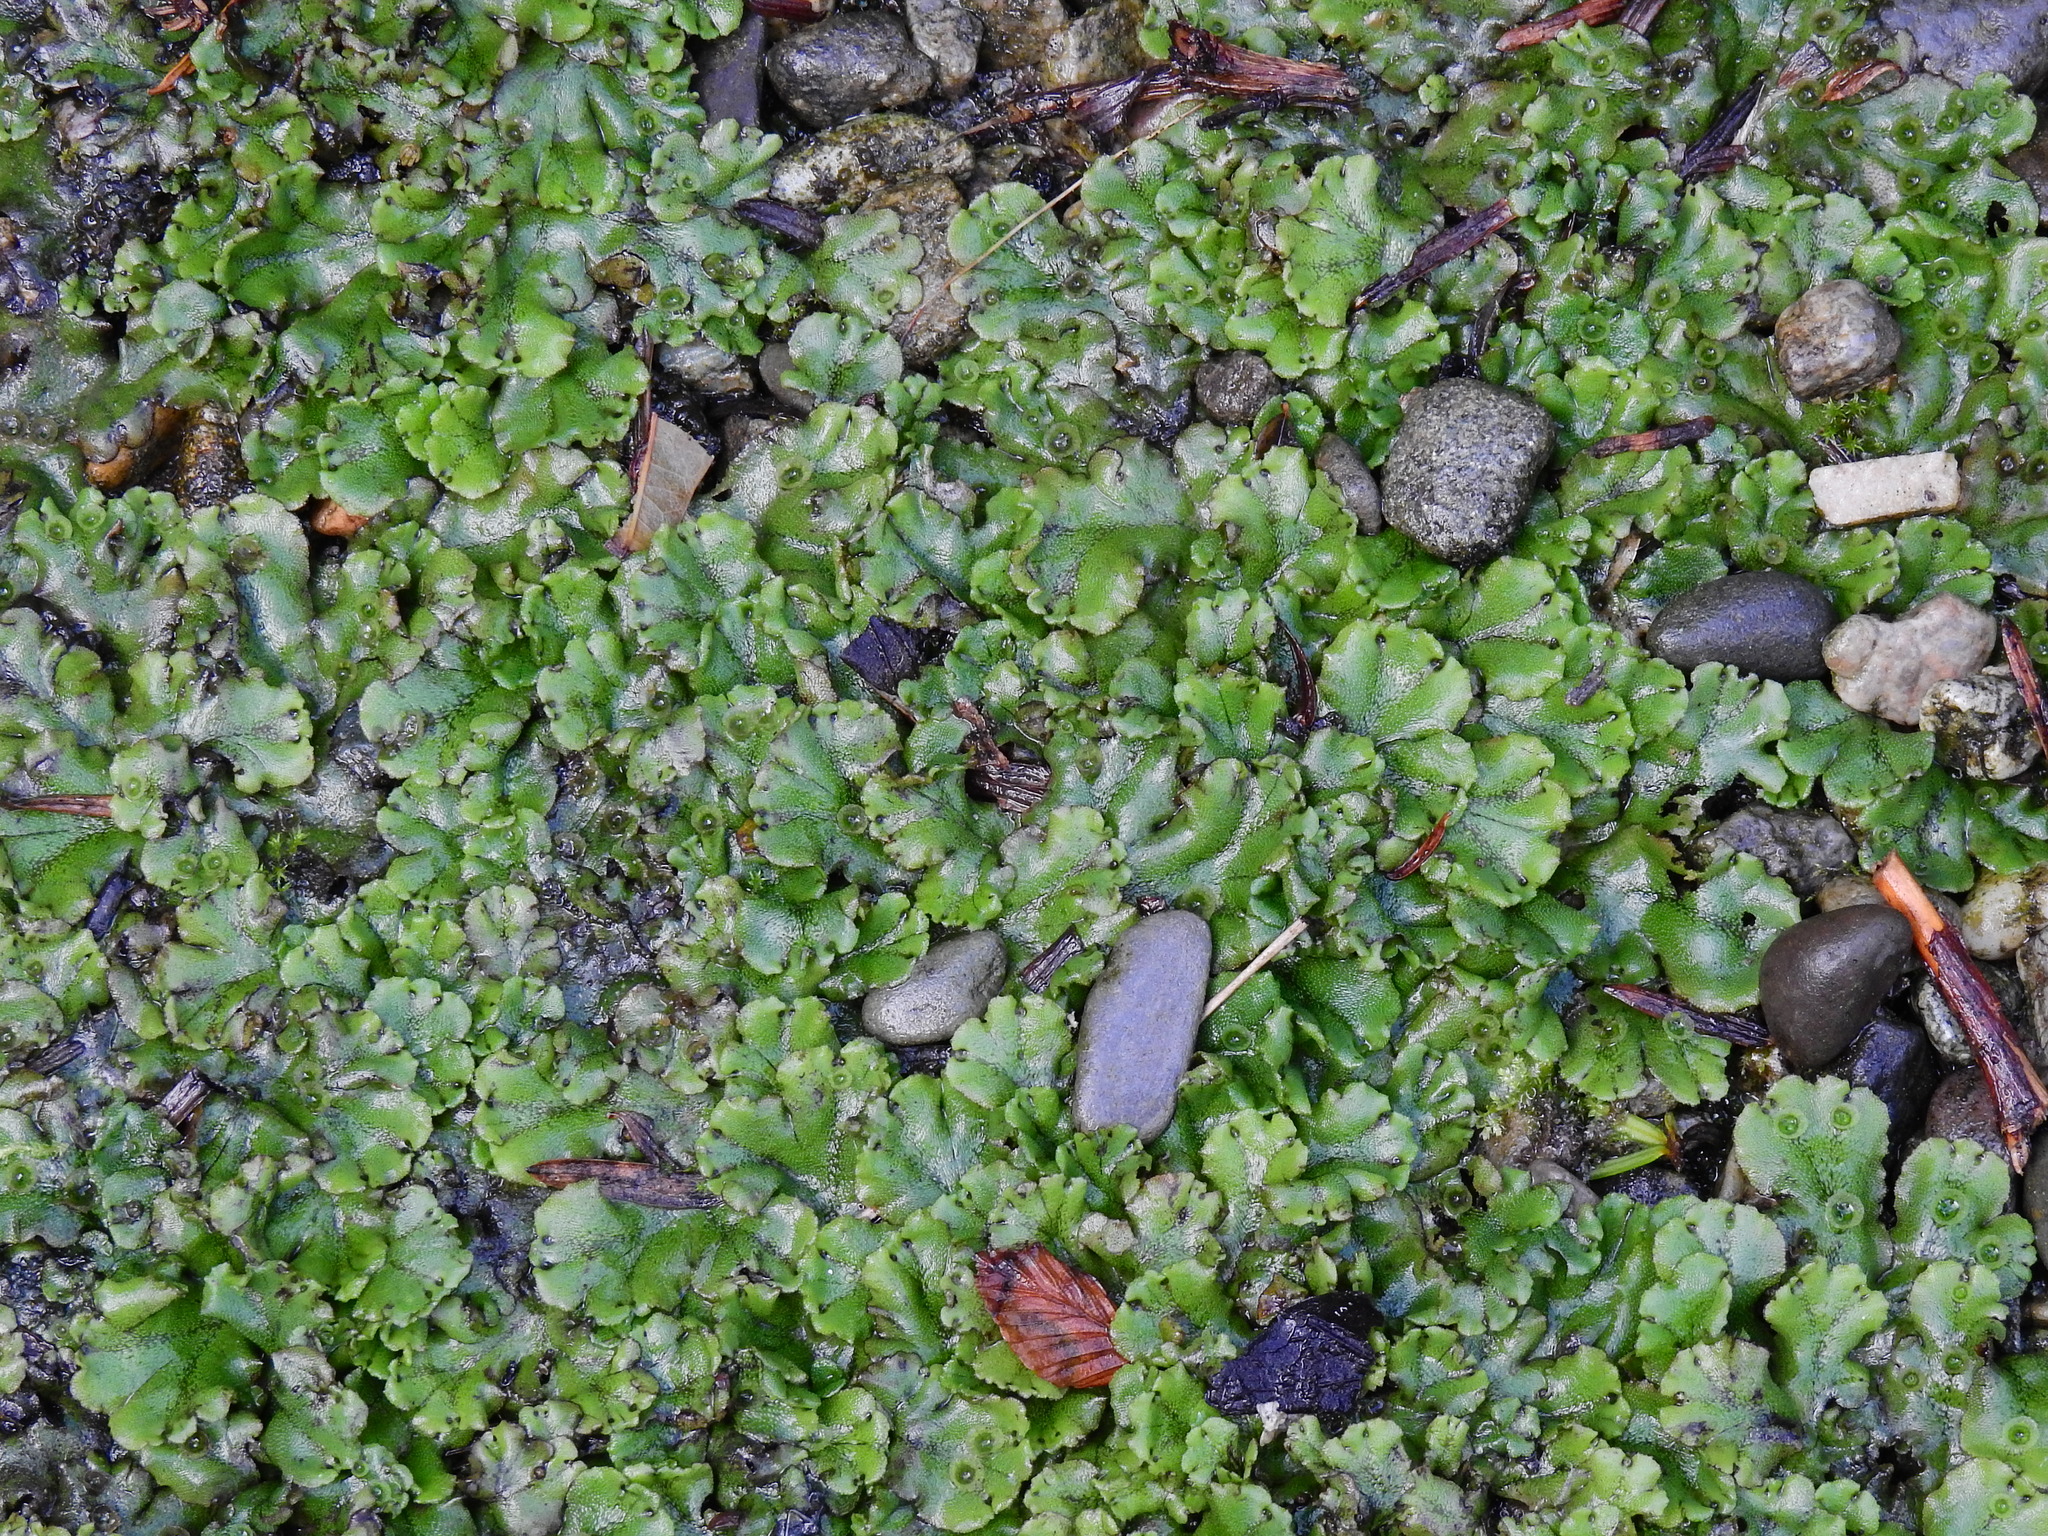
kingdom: Plantae
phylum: Marchantiophyta
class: Marchantiopsida
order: Marchantiales
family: Marchantiaceae
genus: Marchantia
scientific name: Marchantia polymorpha
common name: Common liverwort
